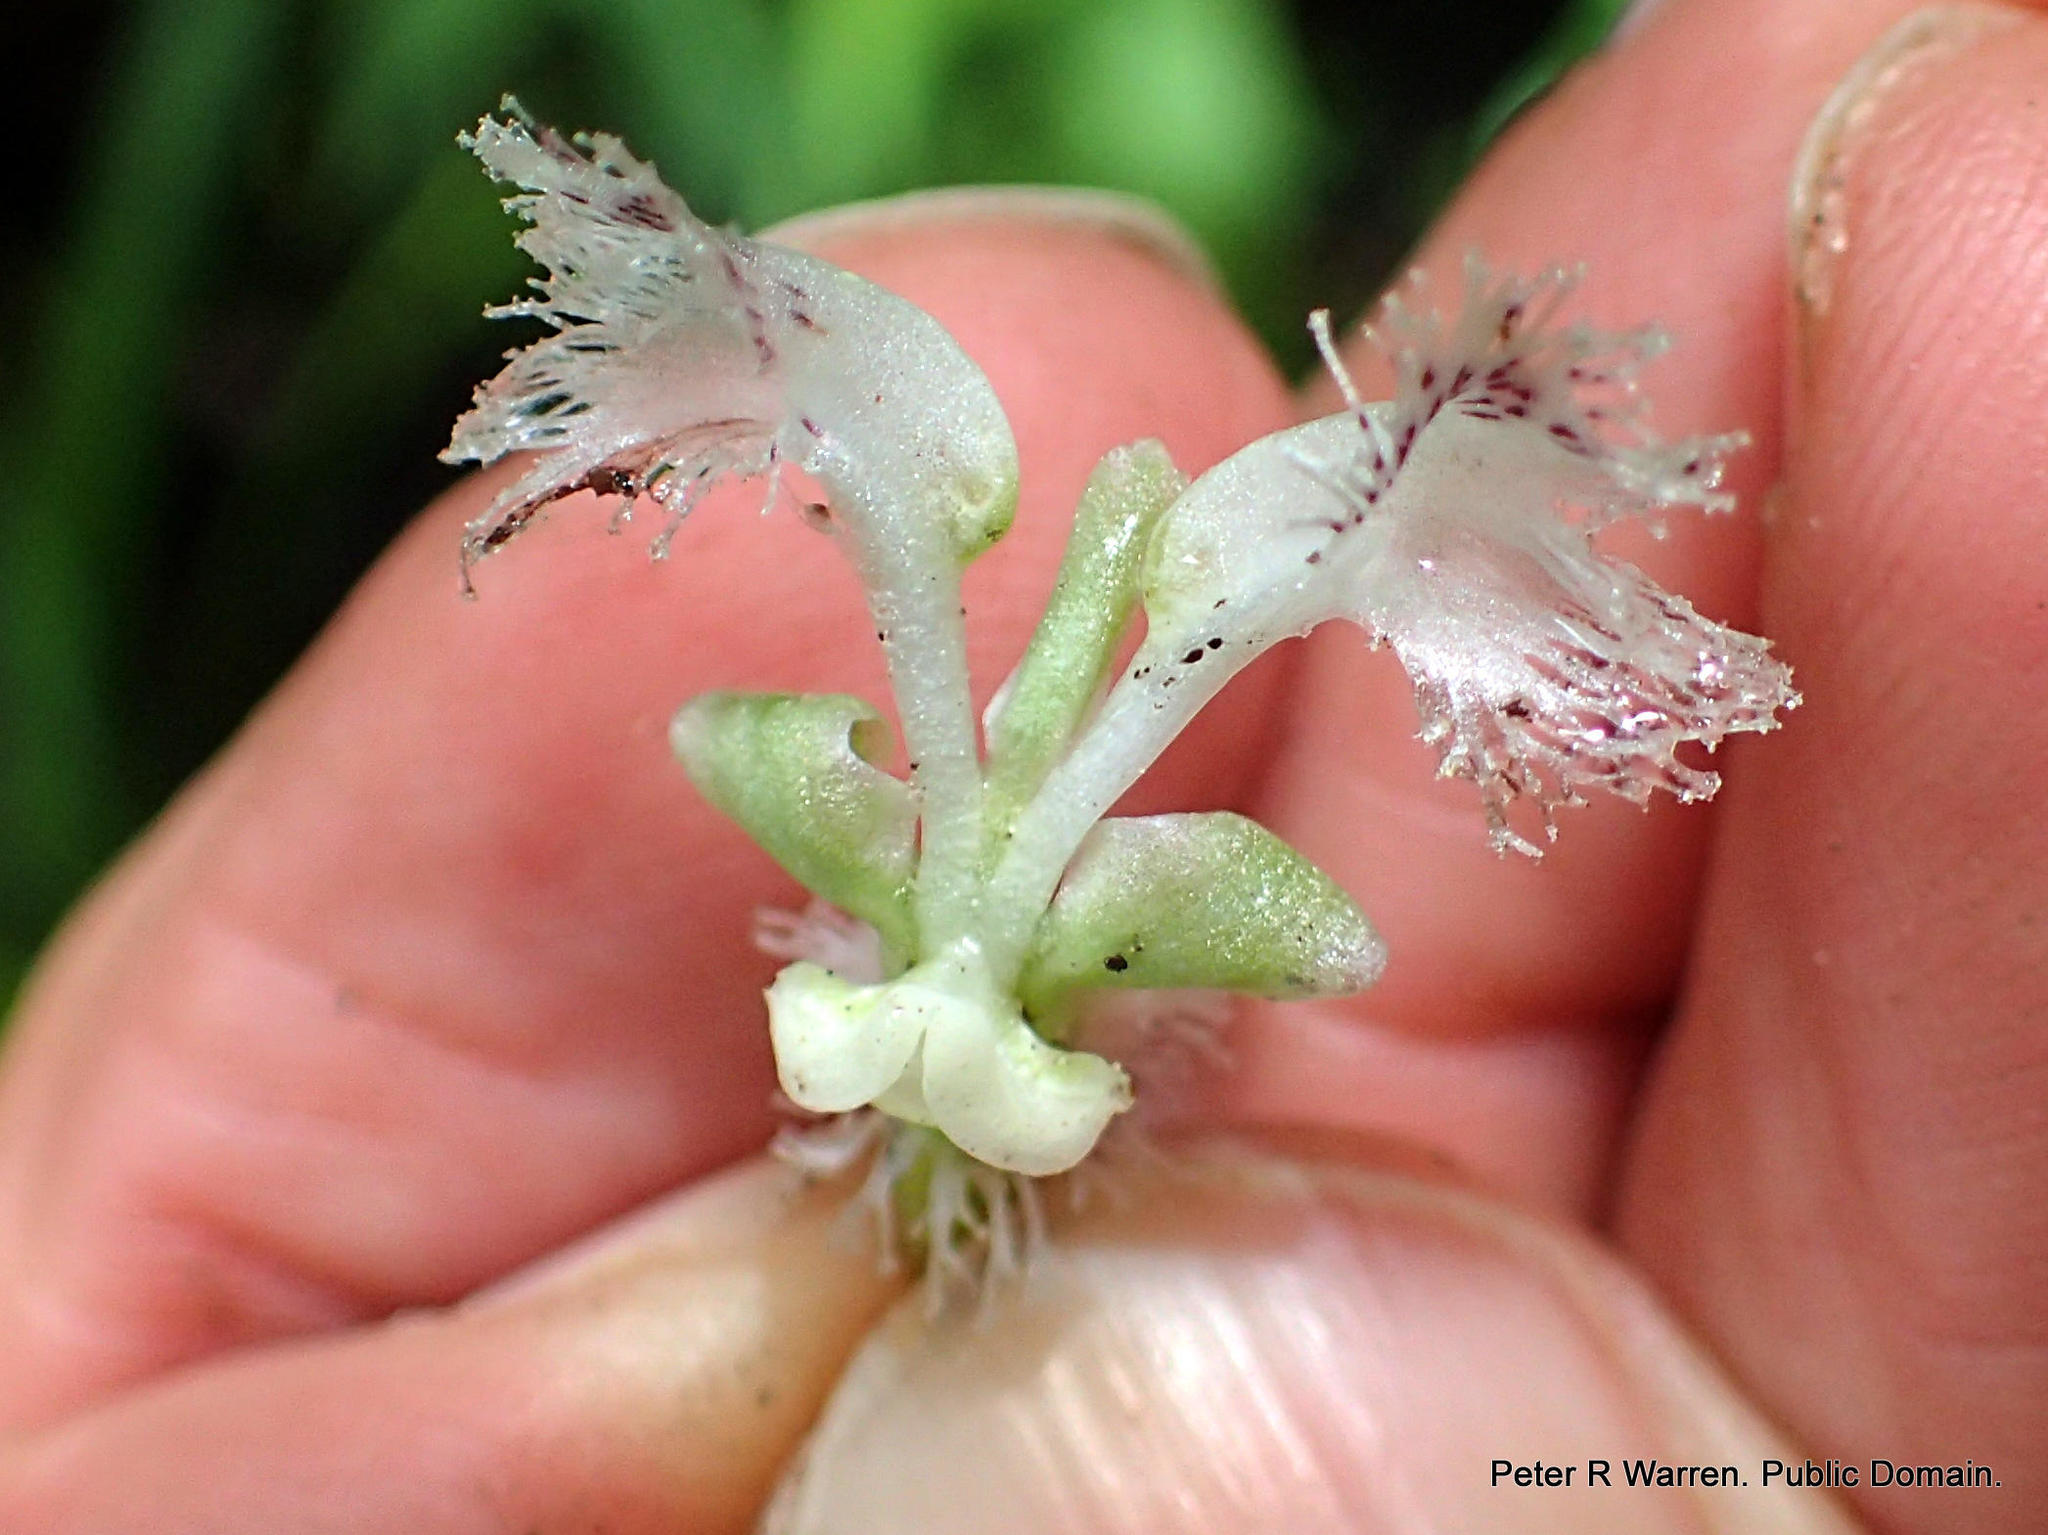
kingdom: Plantae
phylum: Tracheophyta
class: Liliopsida
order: Asparagales
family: Orchidaceae
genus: Huttonaea
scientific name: Huttonaea pulchra
